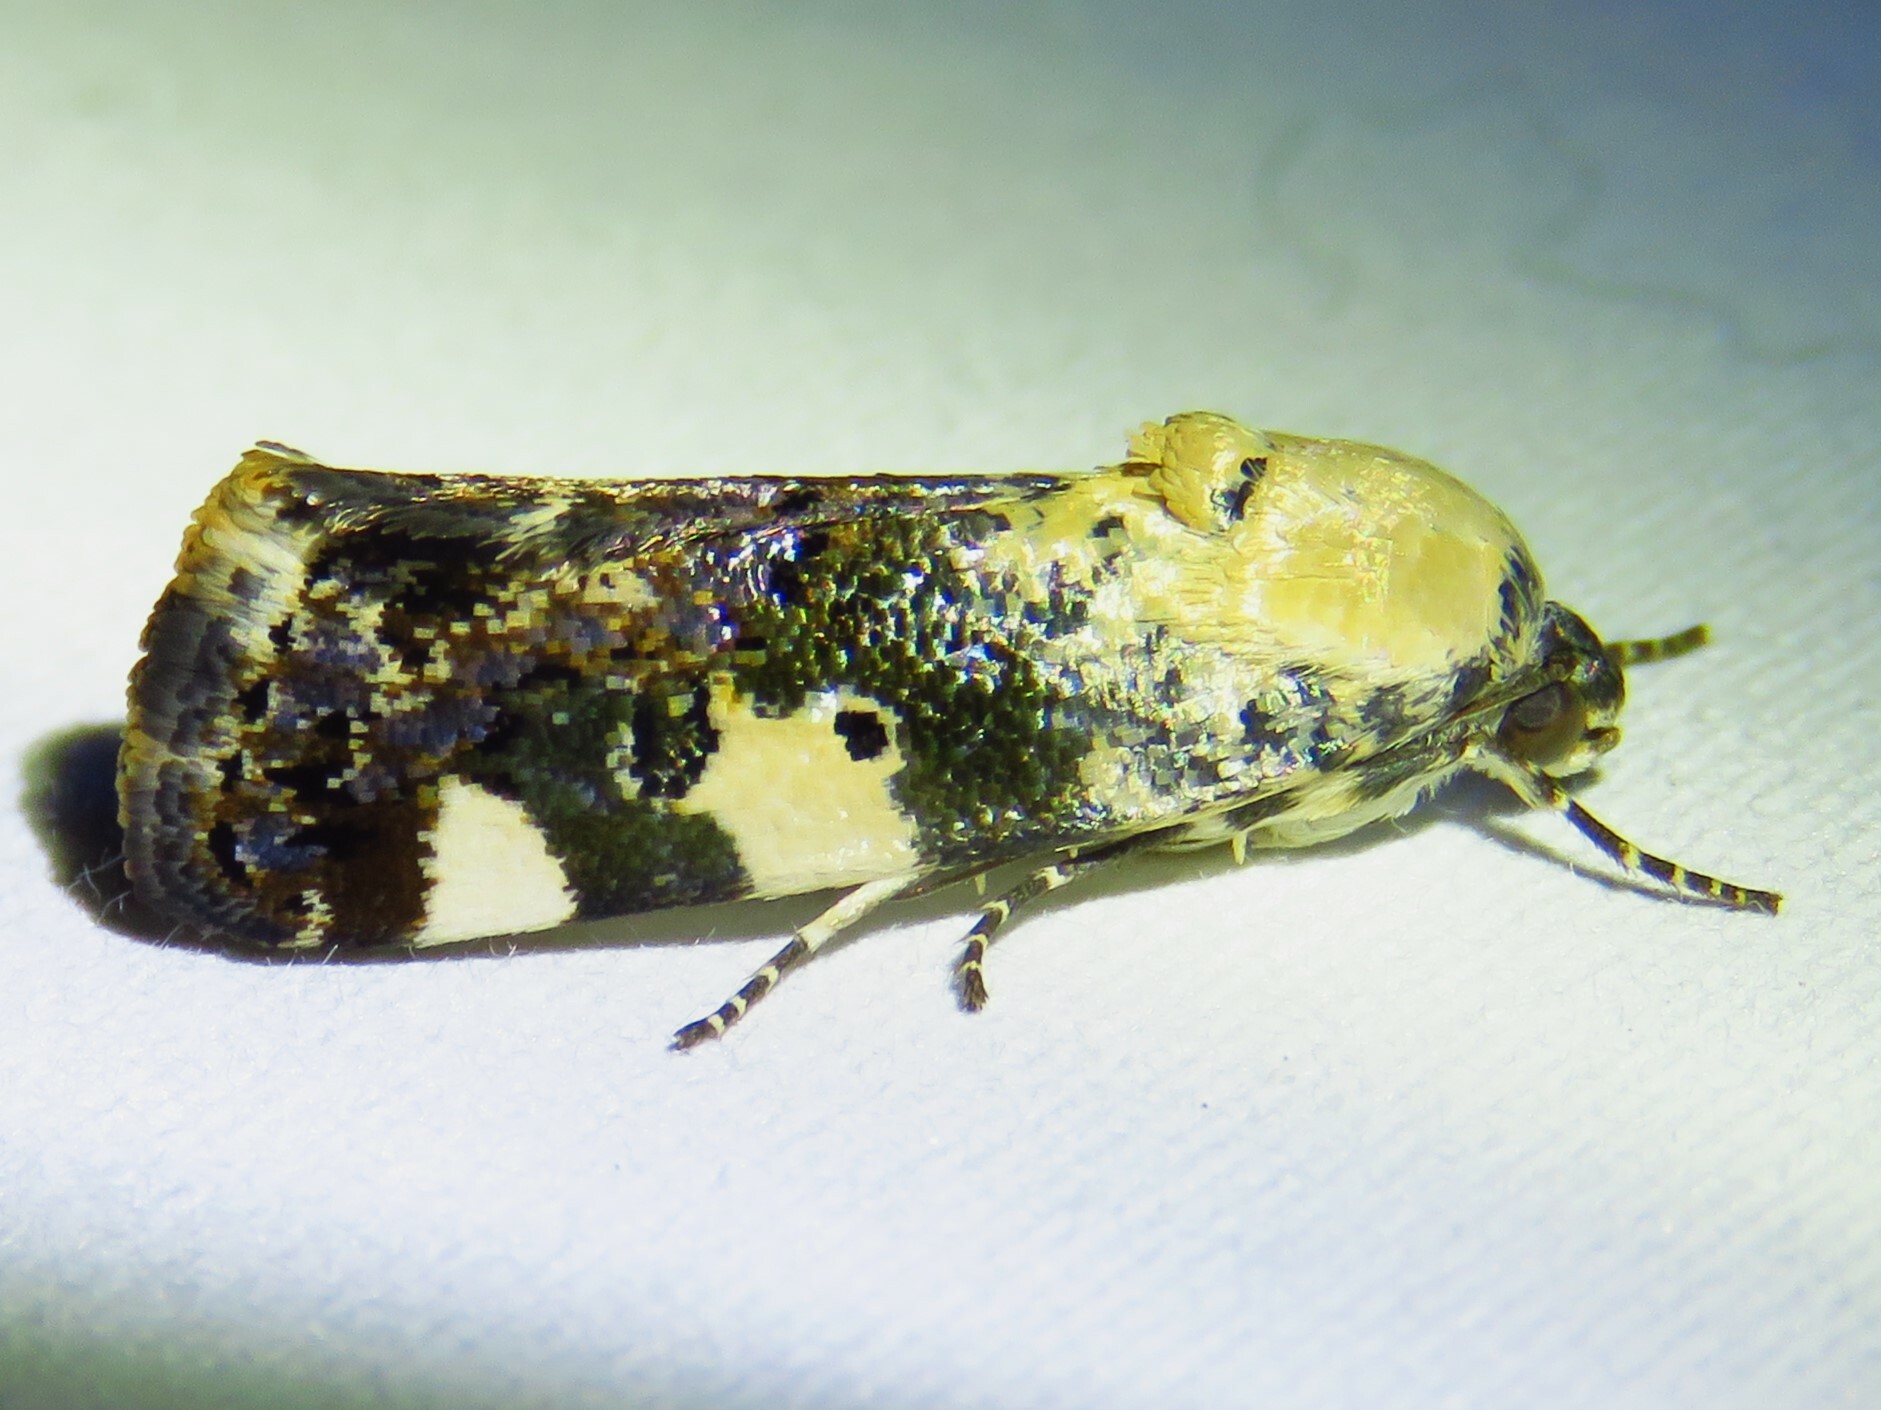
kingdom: Animalia
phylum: Arthropoda
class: Insecta
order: Lepidoptera
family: Noctuidae
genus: Acontia
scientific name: Acontia aprica
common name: Nun
